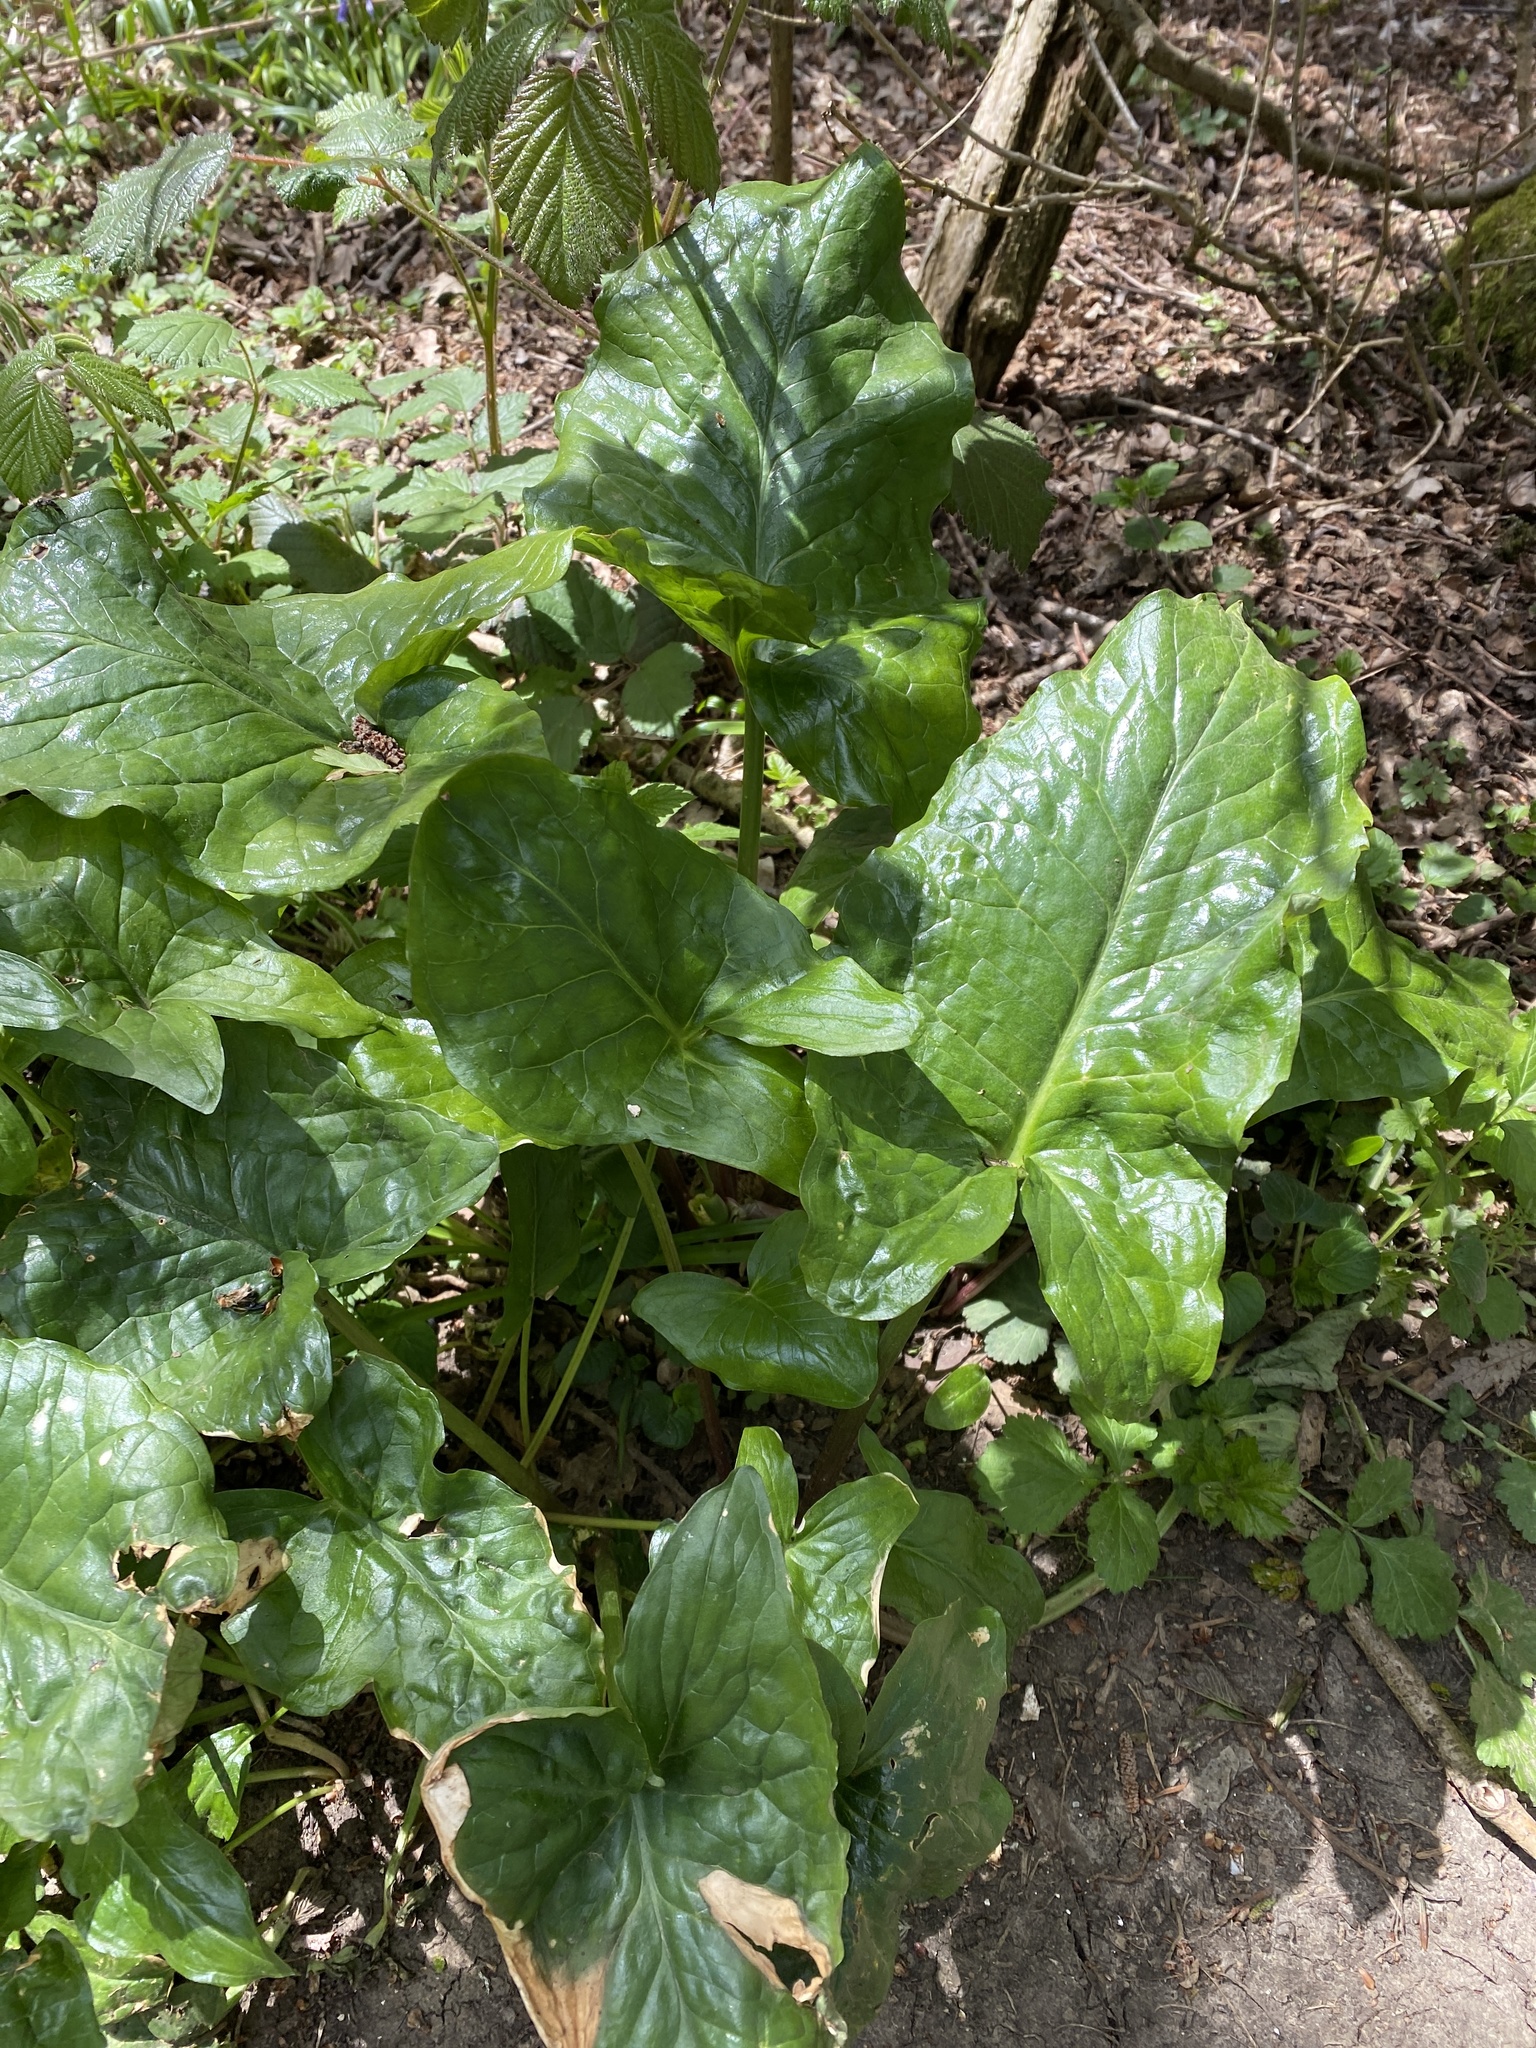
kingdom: Plantae
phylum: Tracheophyta
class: Liliopsida
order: Alismatales
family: Araceae
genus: Arum
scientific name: Arum maculatum
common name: Lords-and-ladies
